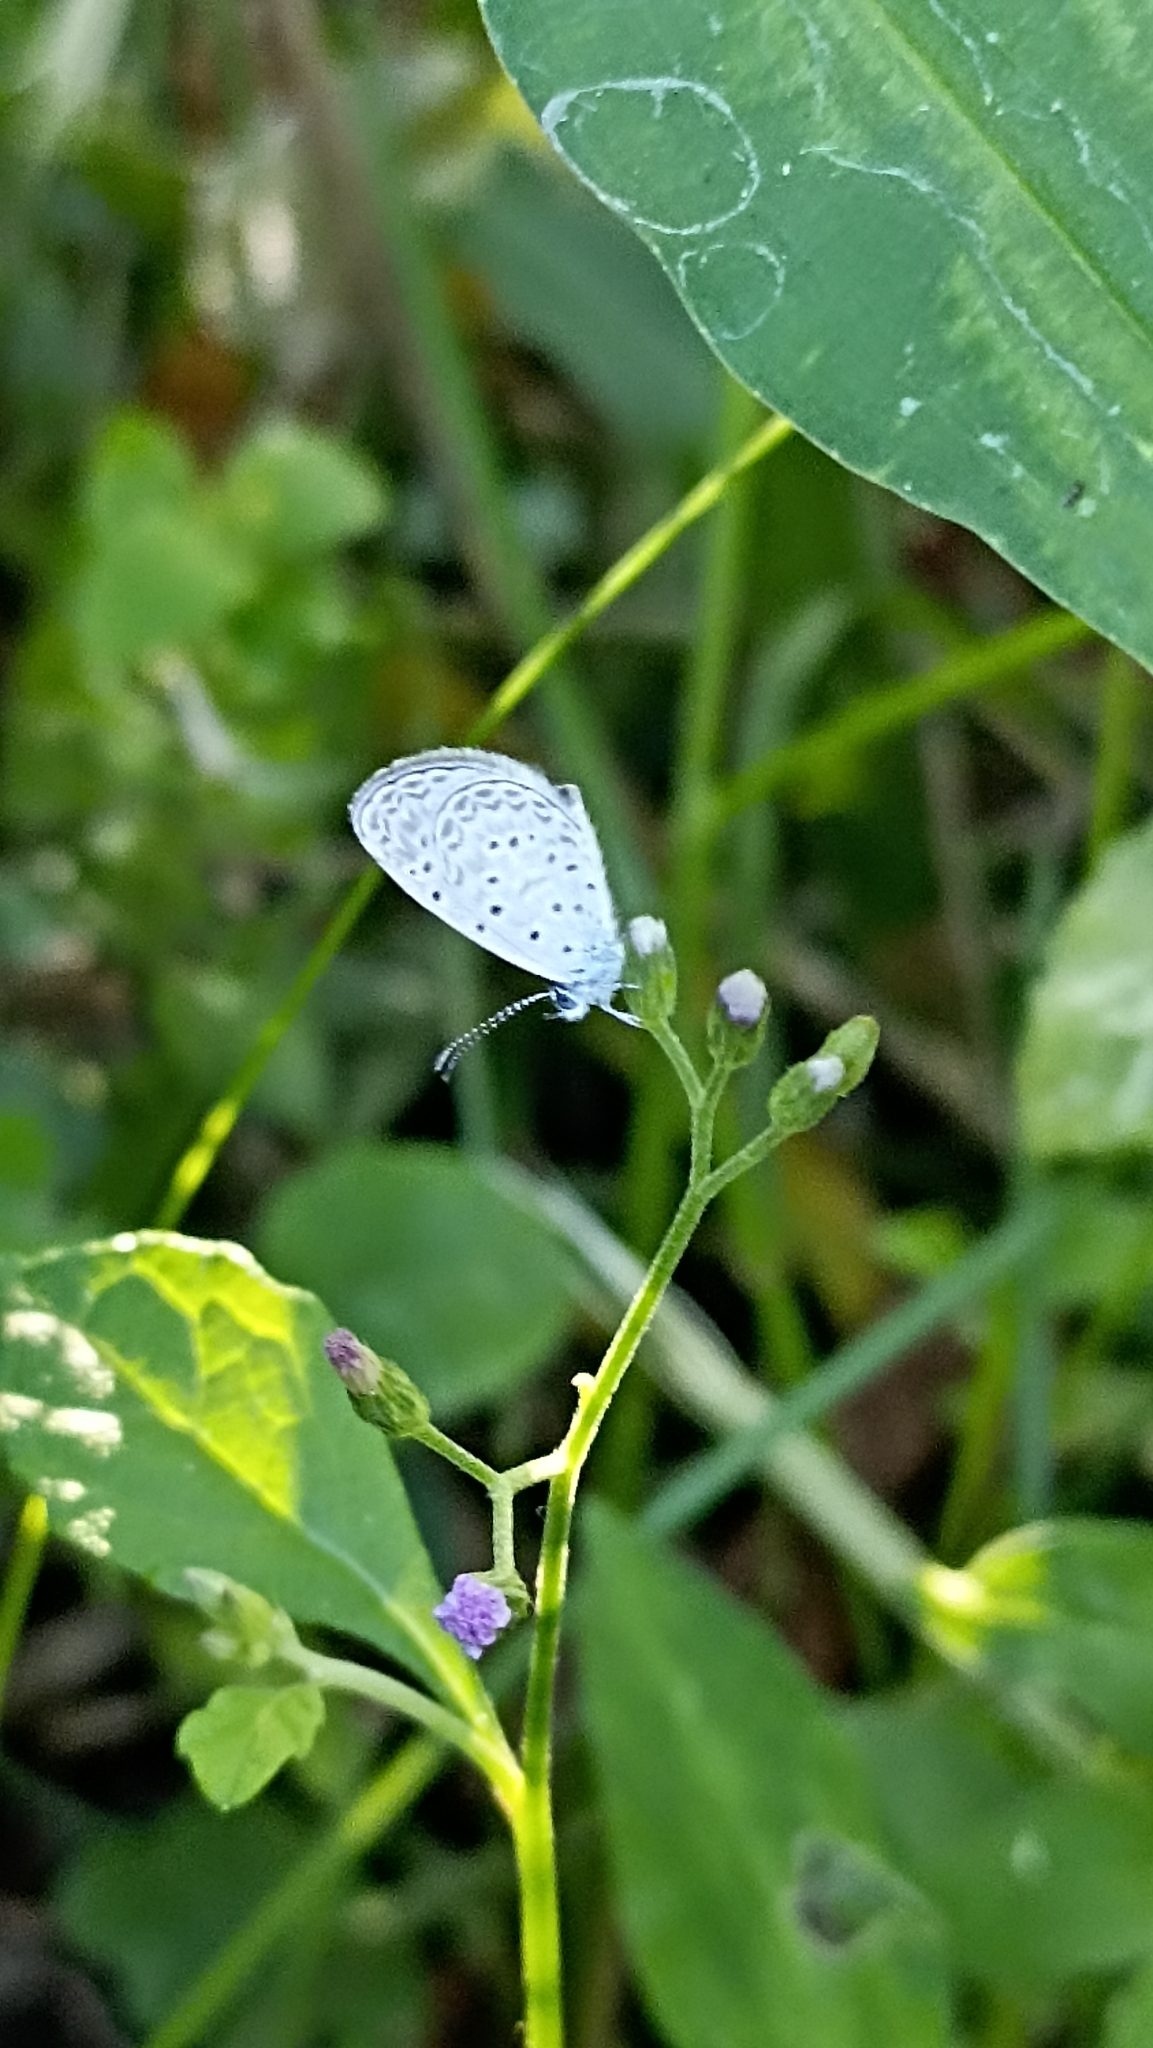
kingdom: Animalia
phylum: Arthropoda
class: Insecta
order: Lepidoptera
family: Lycaenidae
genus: Lycaena
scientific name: Lycaena cyna
